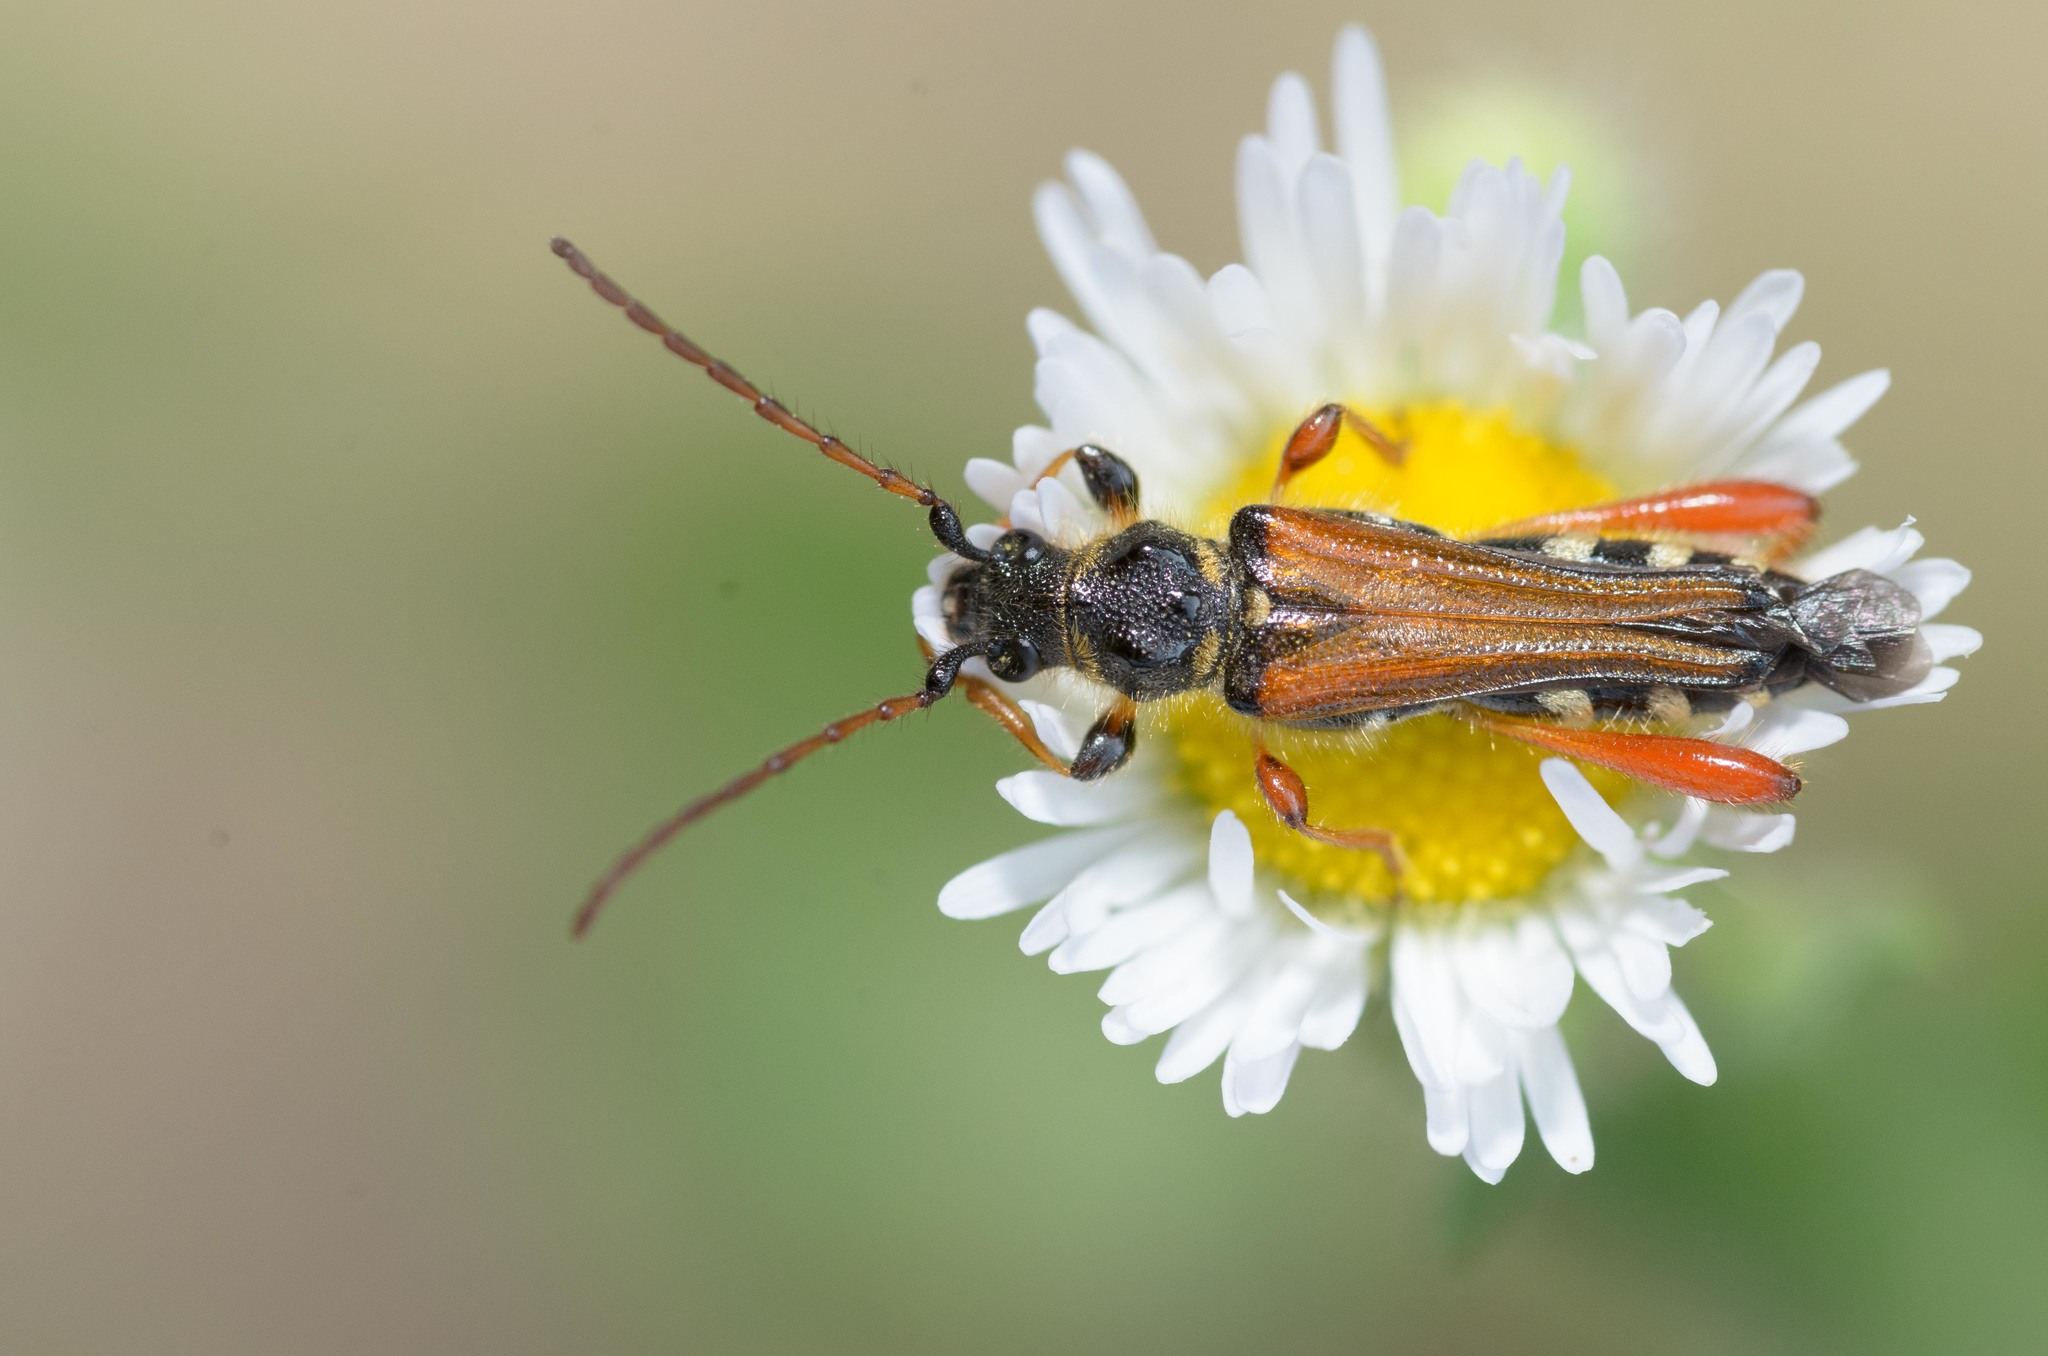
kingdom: Animalia
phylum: Arthropoda
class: Insecta
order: Coleoptera
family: Cerambycidae
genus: Stenopterus
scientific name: Stenopterus rufus
